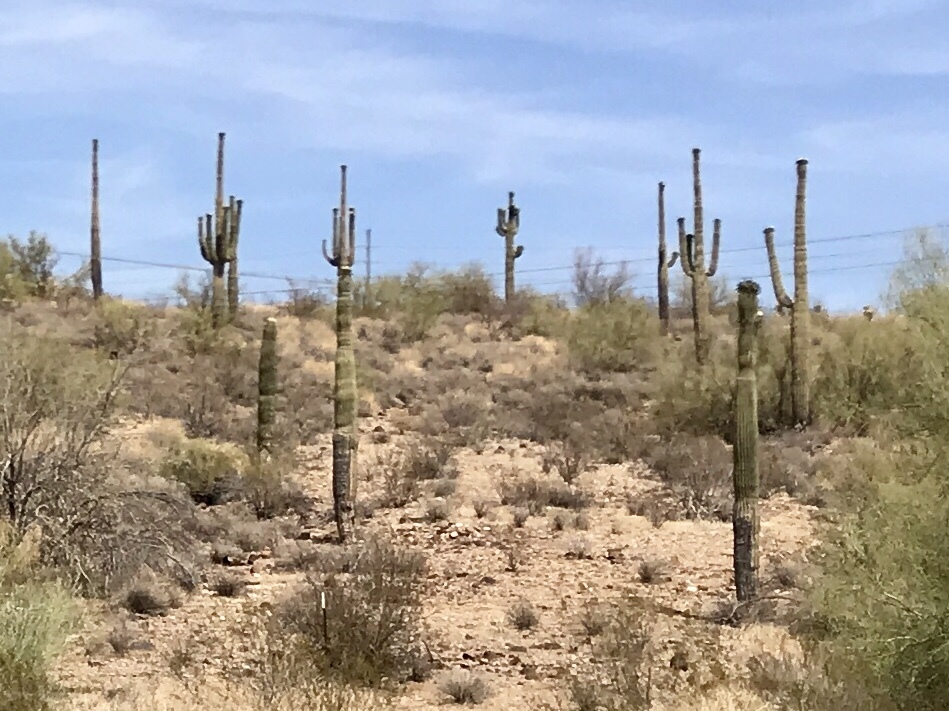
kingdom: Plantae
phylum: Tracheophyta
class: Magnoliopsida
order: Caryophyllales
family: Cactaceae
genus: Carnegiea
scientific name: Carnegiea gigantea
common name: Saguaro
